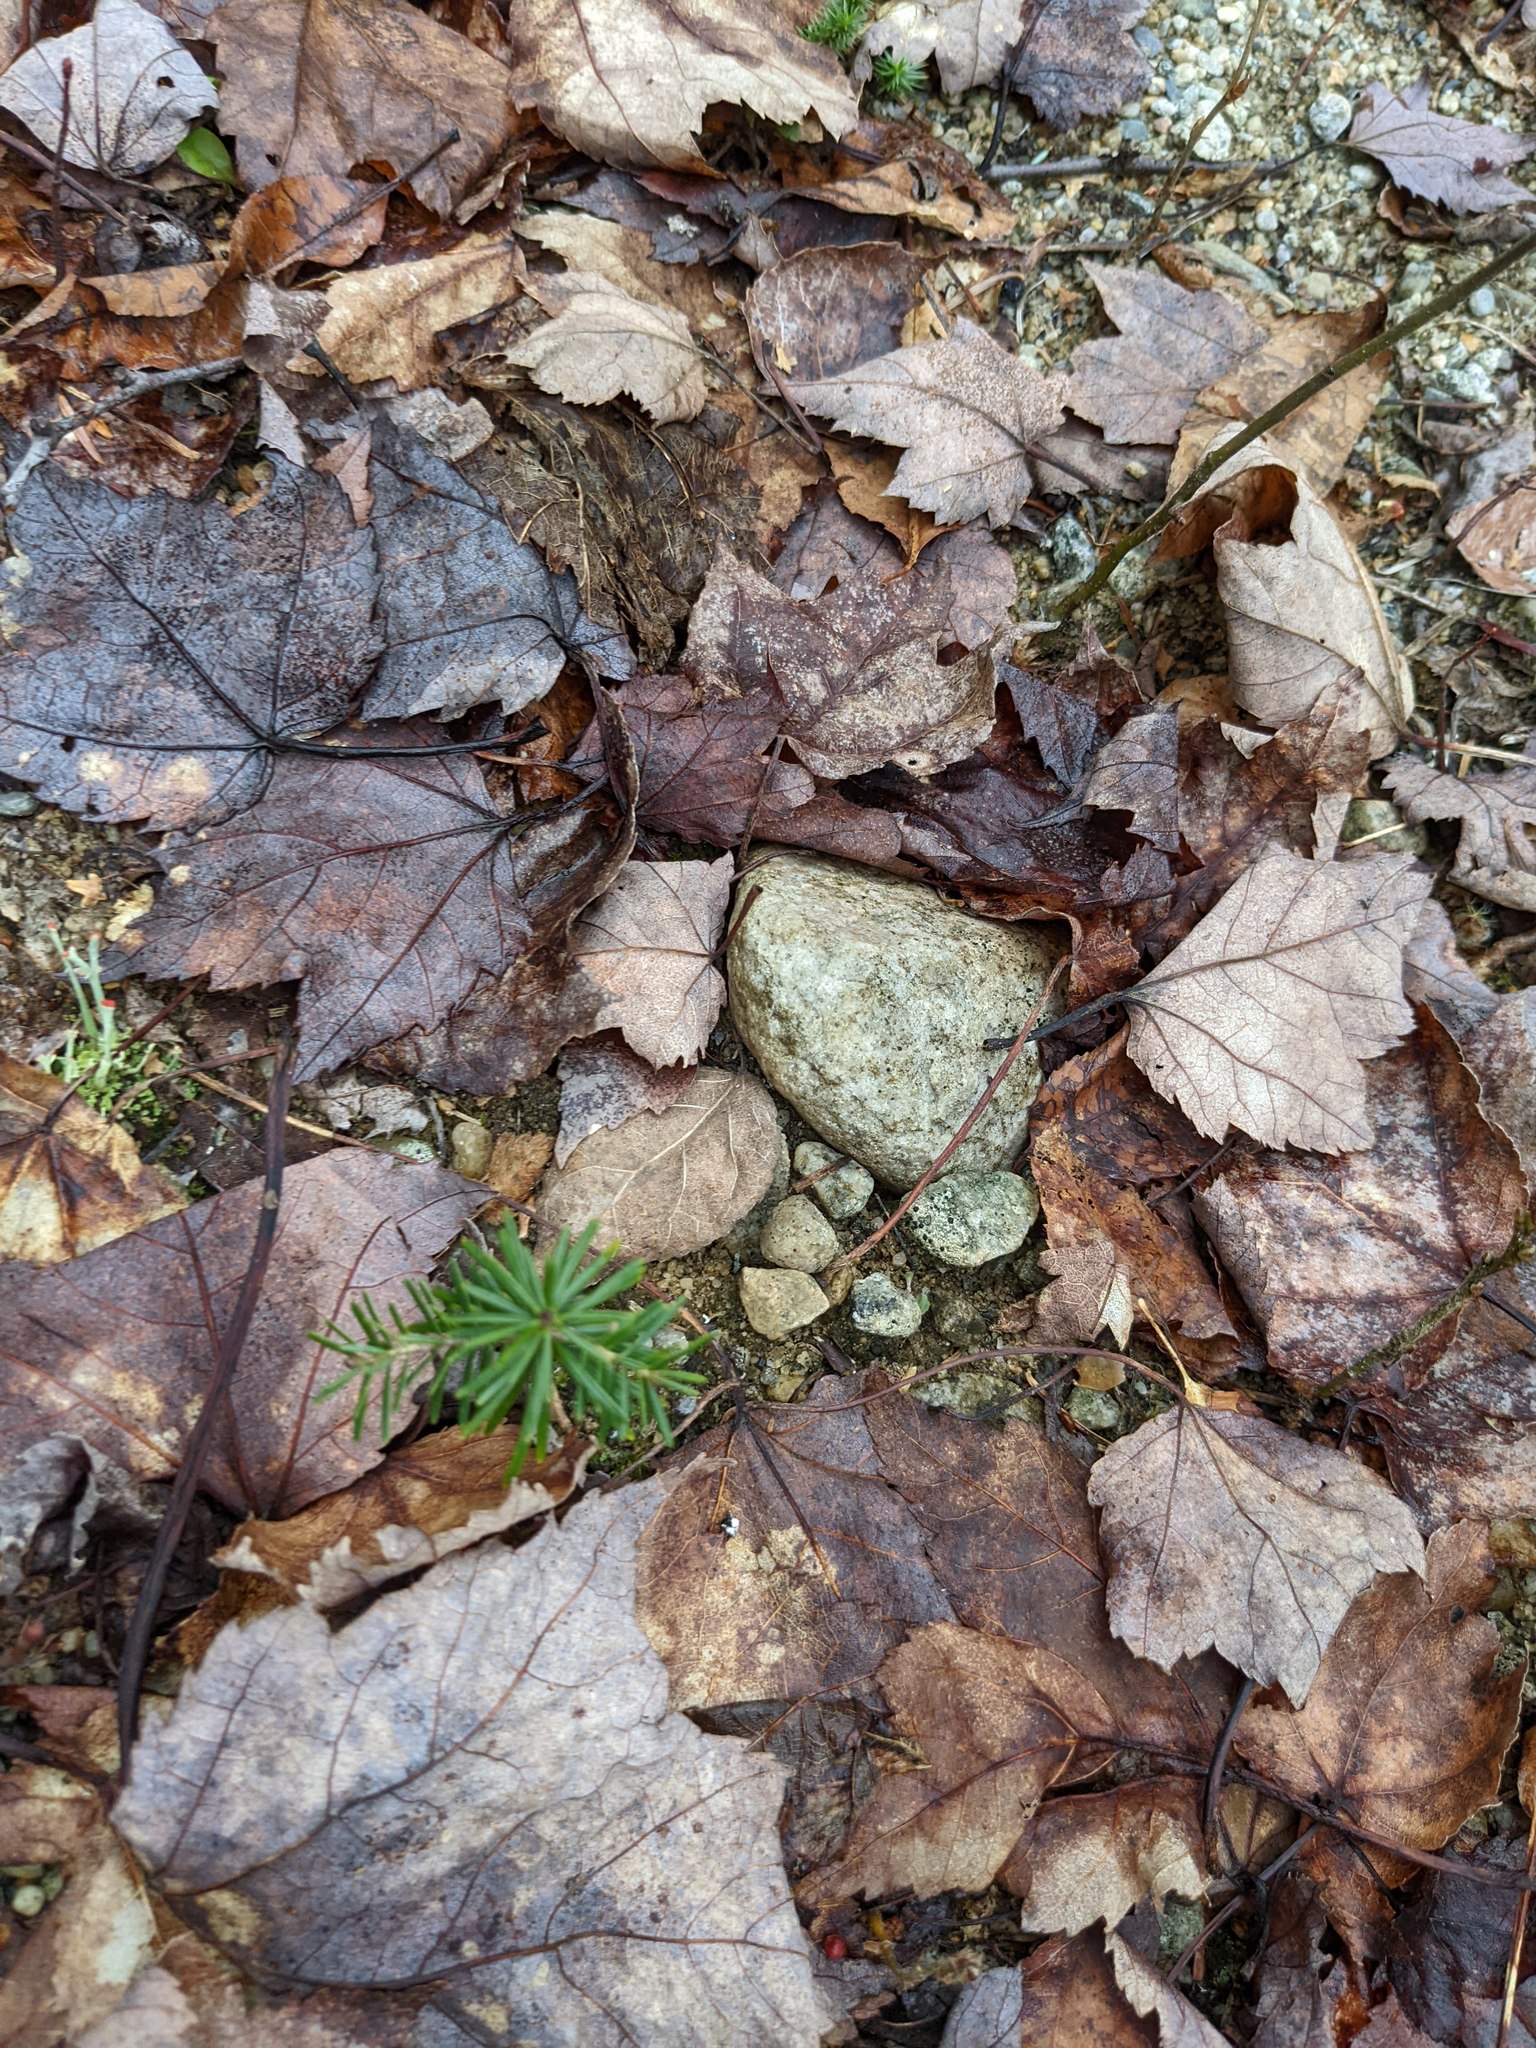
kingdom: Plantae
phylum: Tracheophyta
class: Pinopsida
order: Pinales
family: Pinaceae
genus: Tsuga
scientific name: Tsuga canadensis
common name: Eastern hemlock
